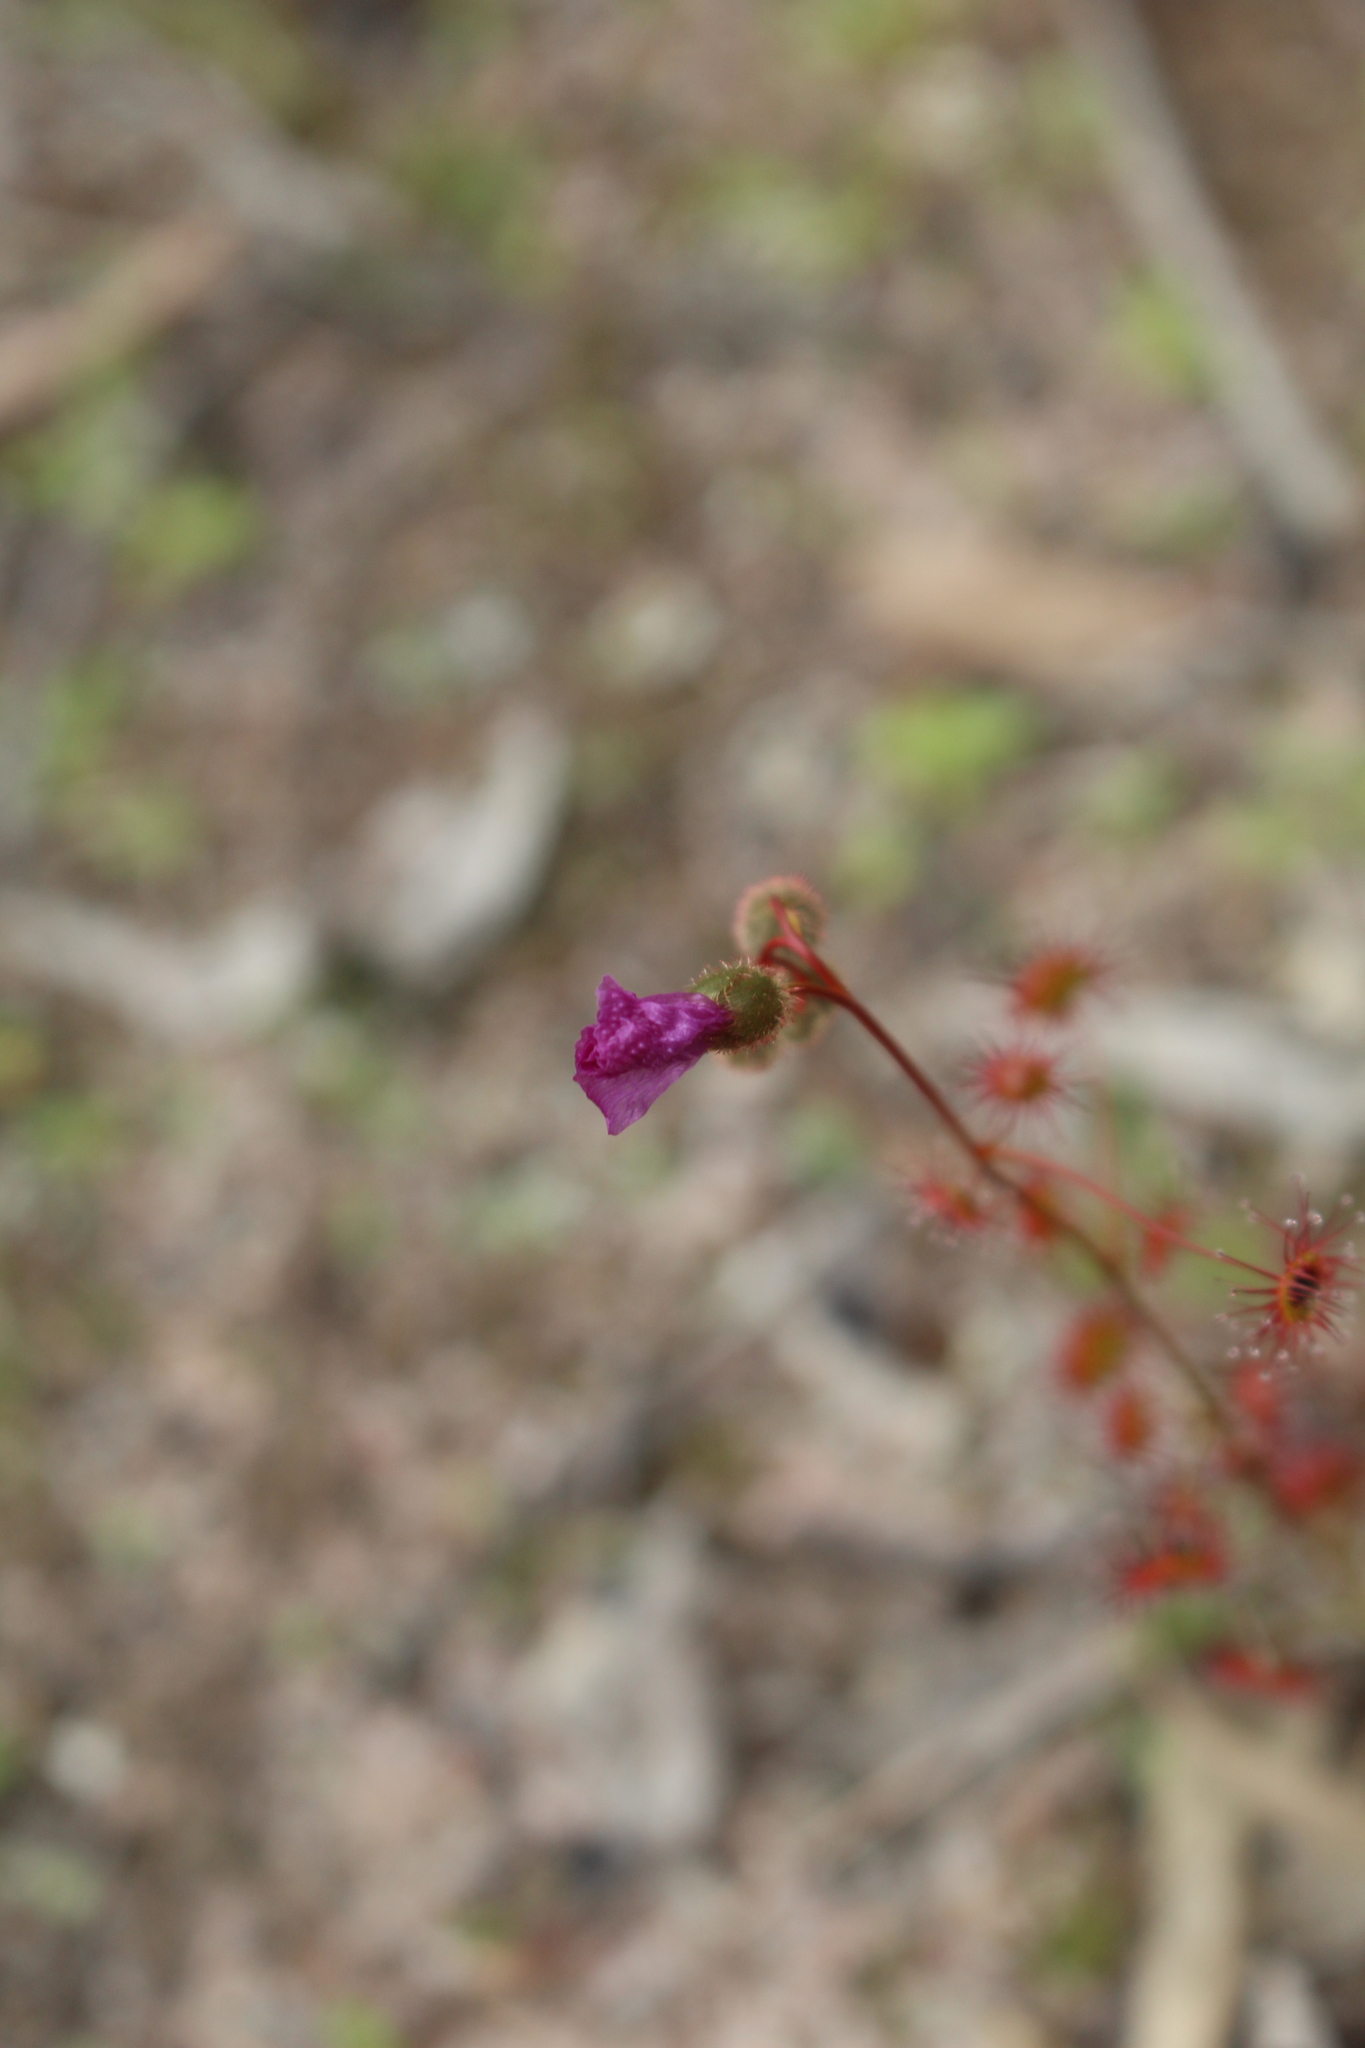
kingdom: Plantae
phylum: Tracheophyta
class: Magnoliopsida
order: Caryophyllales
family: Droseraceae
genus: Drosera
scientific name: Drosera menziesii
